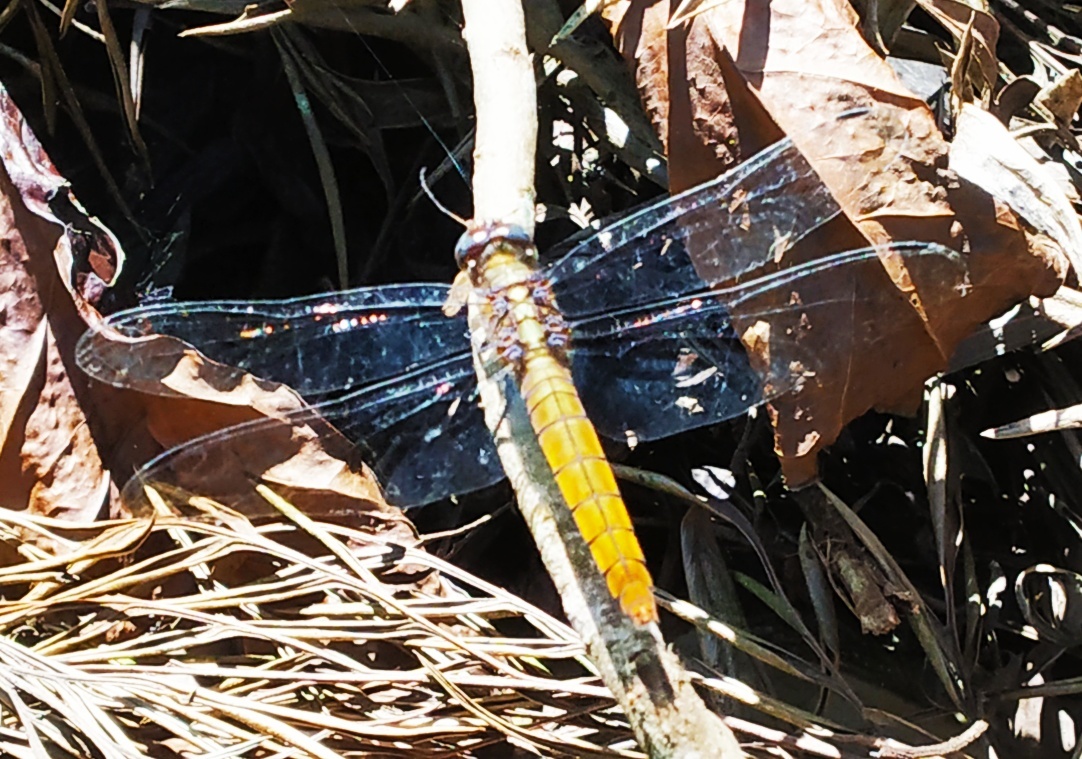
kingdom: Animalia
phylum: Arthropoda
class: Insecta
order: Odonata
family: Libellulidae
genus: Orthetrum
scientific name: Orthetrum pruinosum
